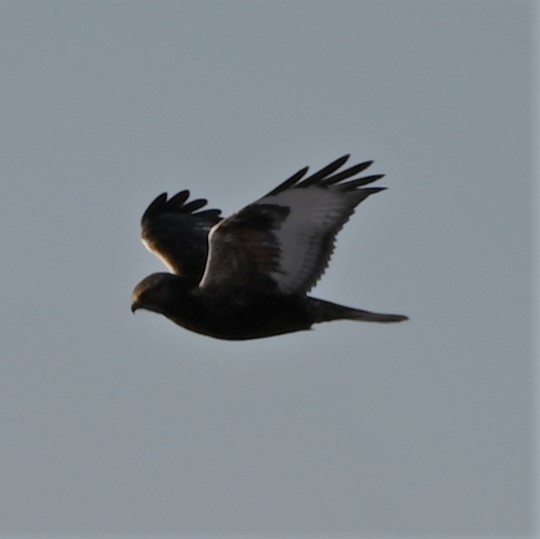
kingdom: Animalia
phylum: Chordata
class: Aves
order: Accipitriformes
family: Accipitridae
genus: Buteo
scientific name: Buteo lagopus
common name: Rough-legged buzzard
